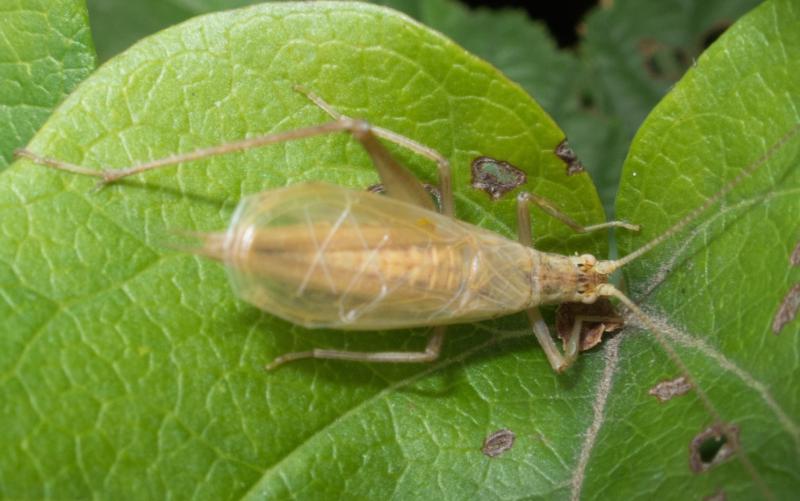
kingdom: Animalia
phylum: Arthropoda
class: Insecta
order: Orthoptera
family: Gryllidae
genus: Oecanthus
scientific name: Oecanthus pellucens
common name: Tree-cricket
